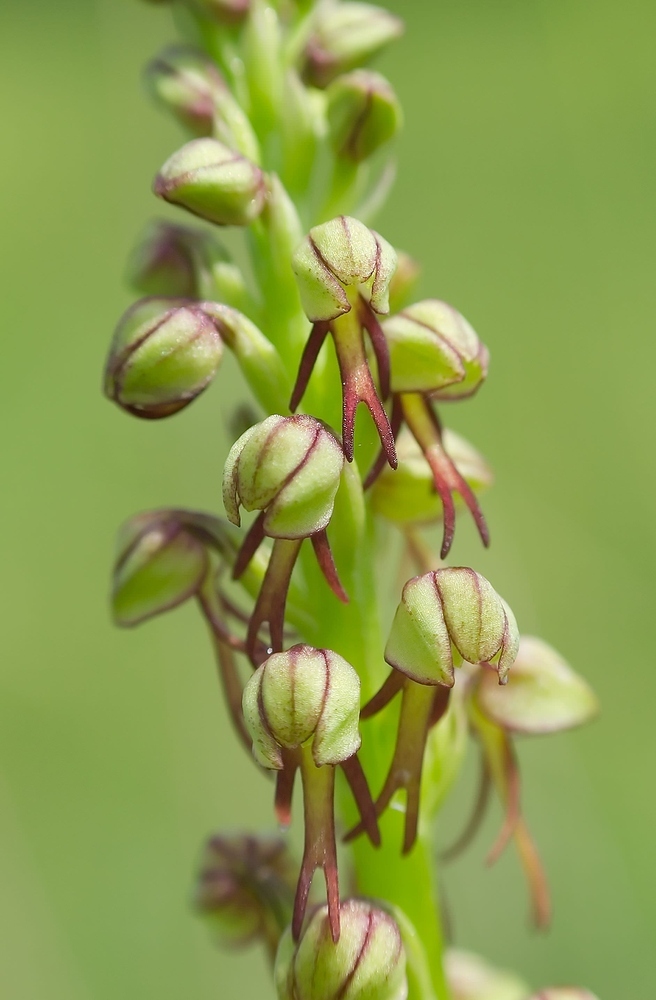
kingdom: Plantae
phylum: Tracheophyta
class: Liliopsida
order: Asparagales
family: Orchidaceae
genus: Orchis
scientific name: Orchis anthropophora
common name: Man orchid
